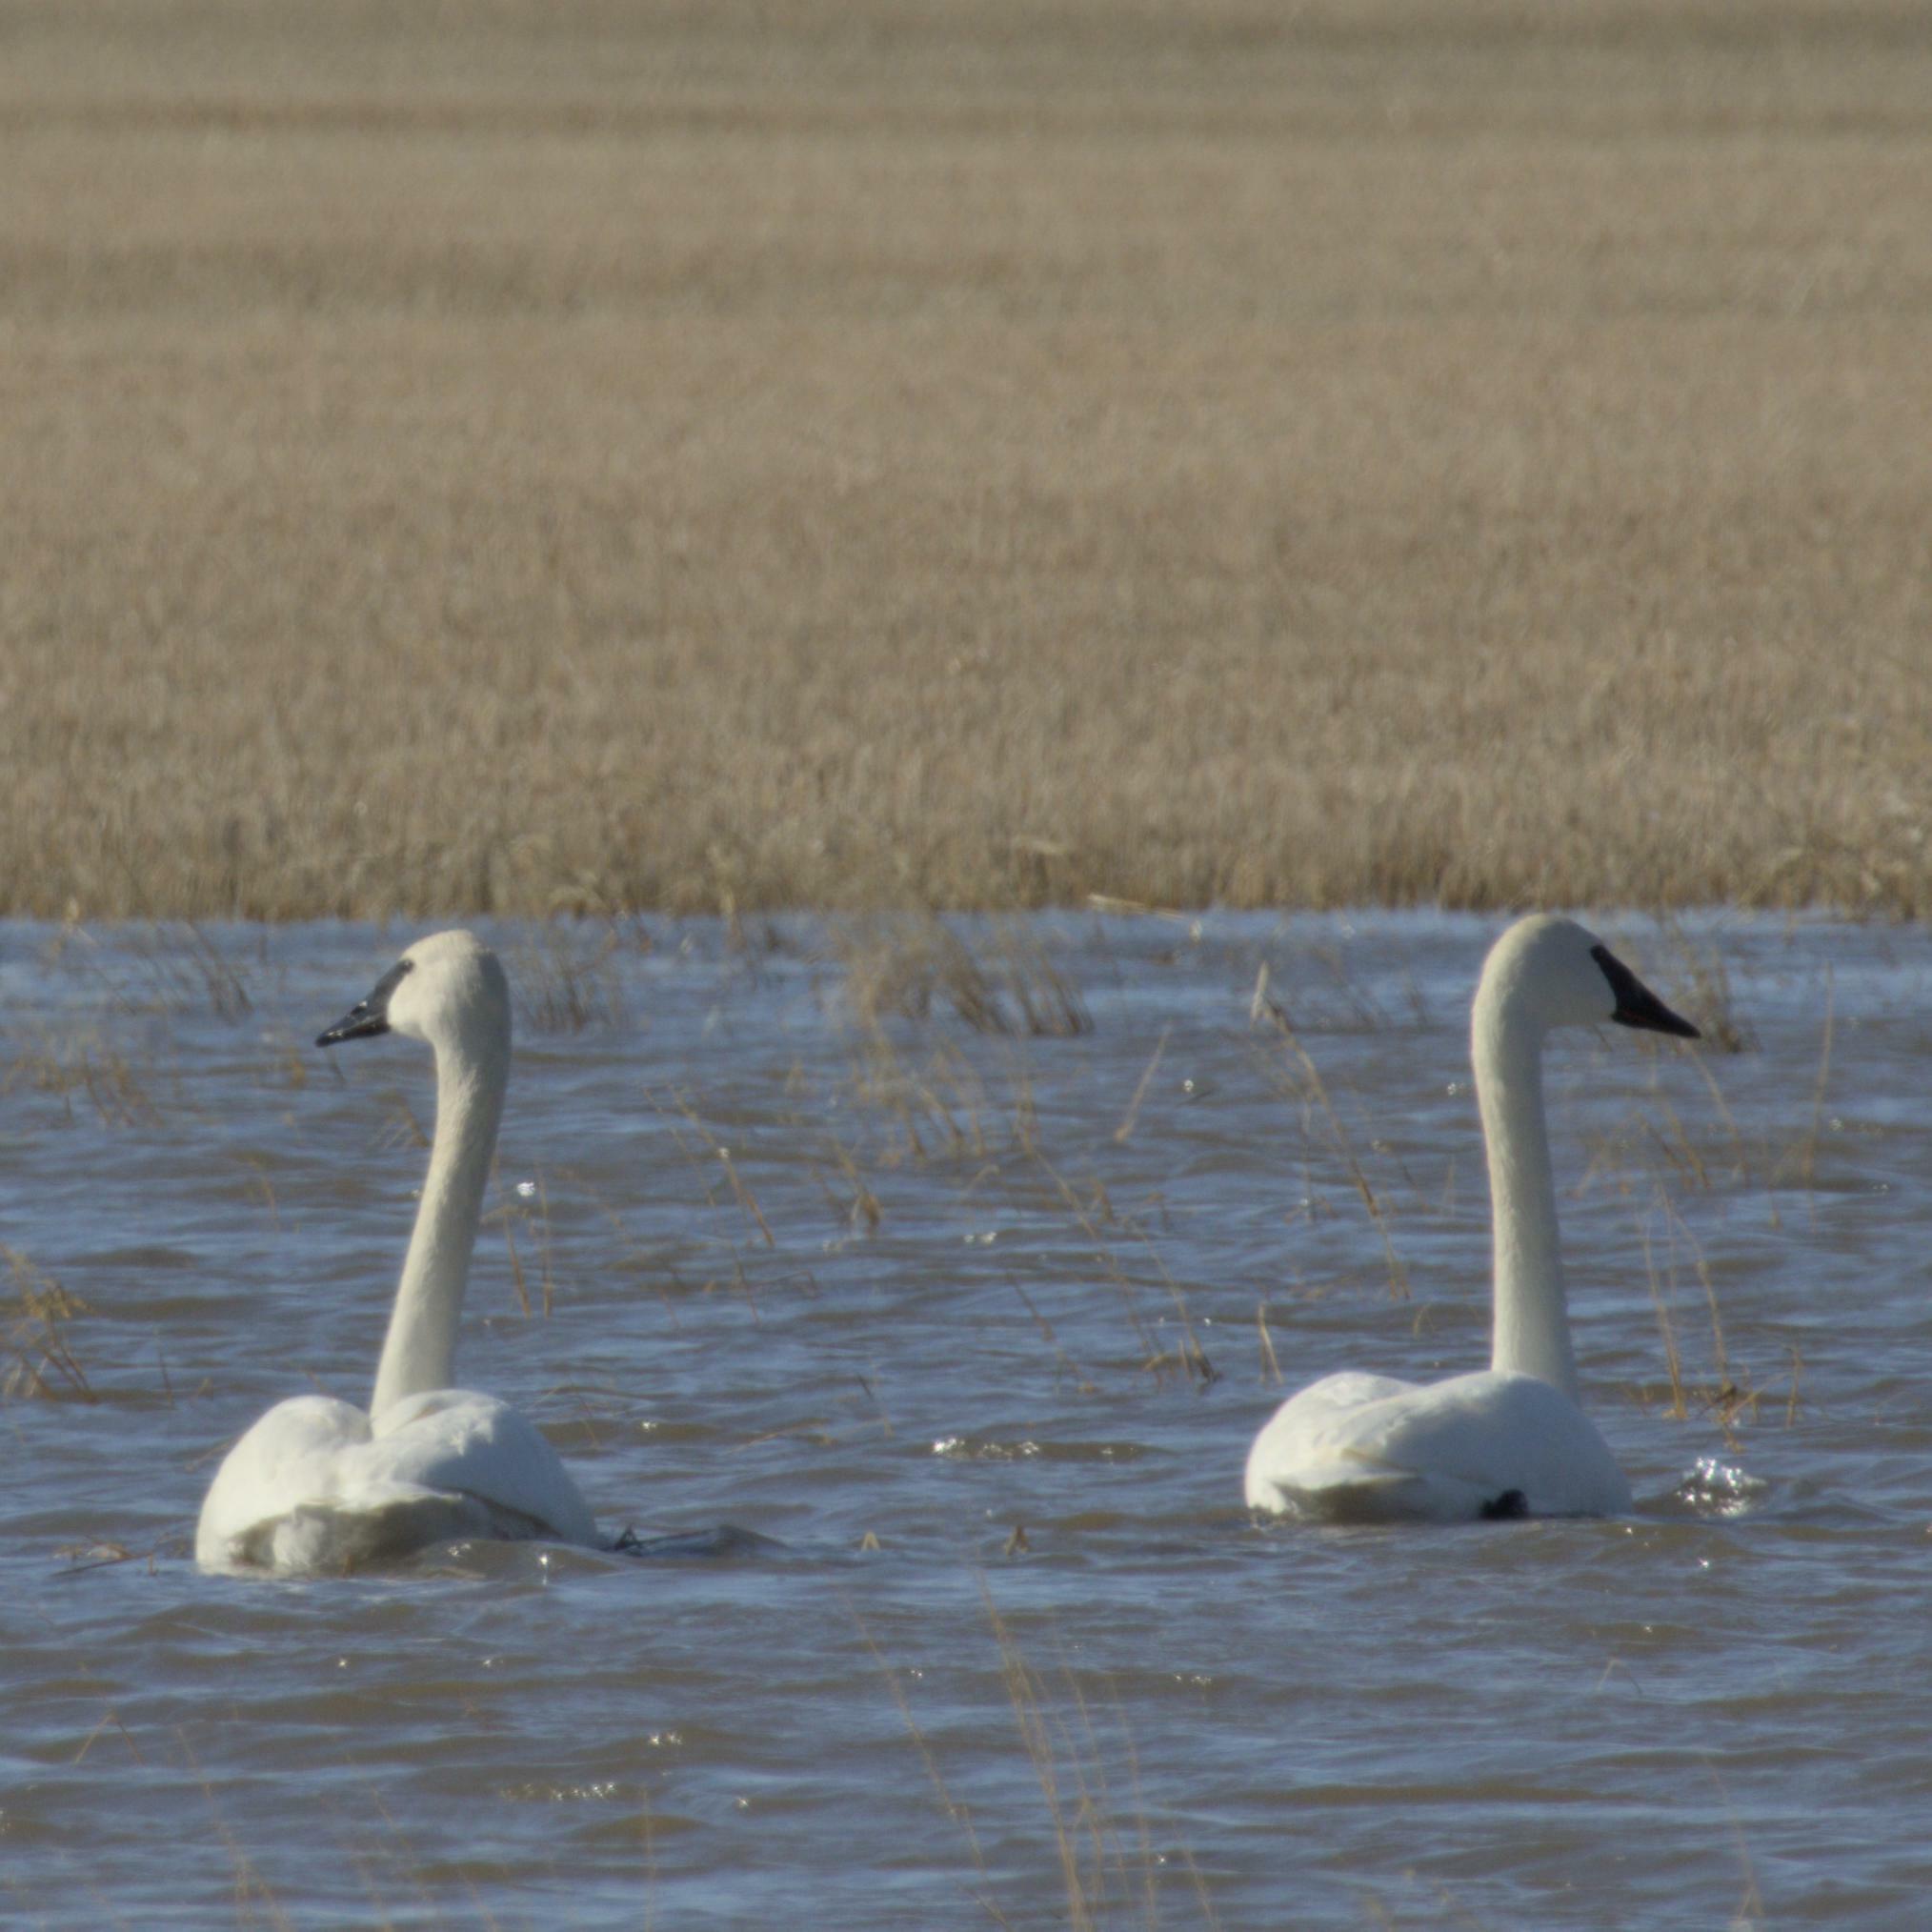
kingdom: Animalia
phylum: Chordata
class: Aves
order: Anseriformes
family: Anatidae
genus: Cygnus
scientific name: Cygnus buccinator
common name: Trumpeter swan
